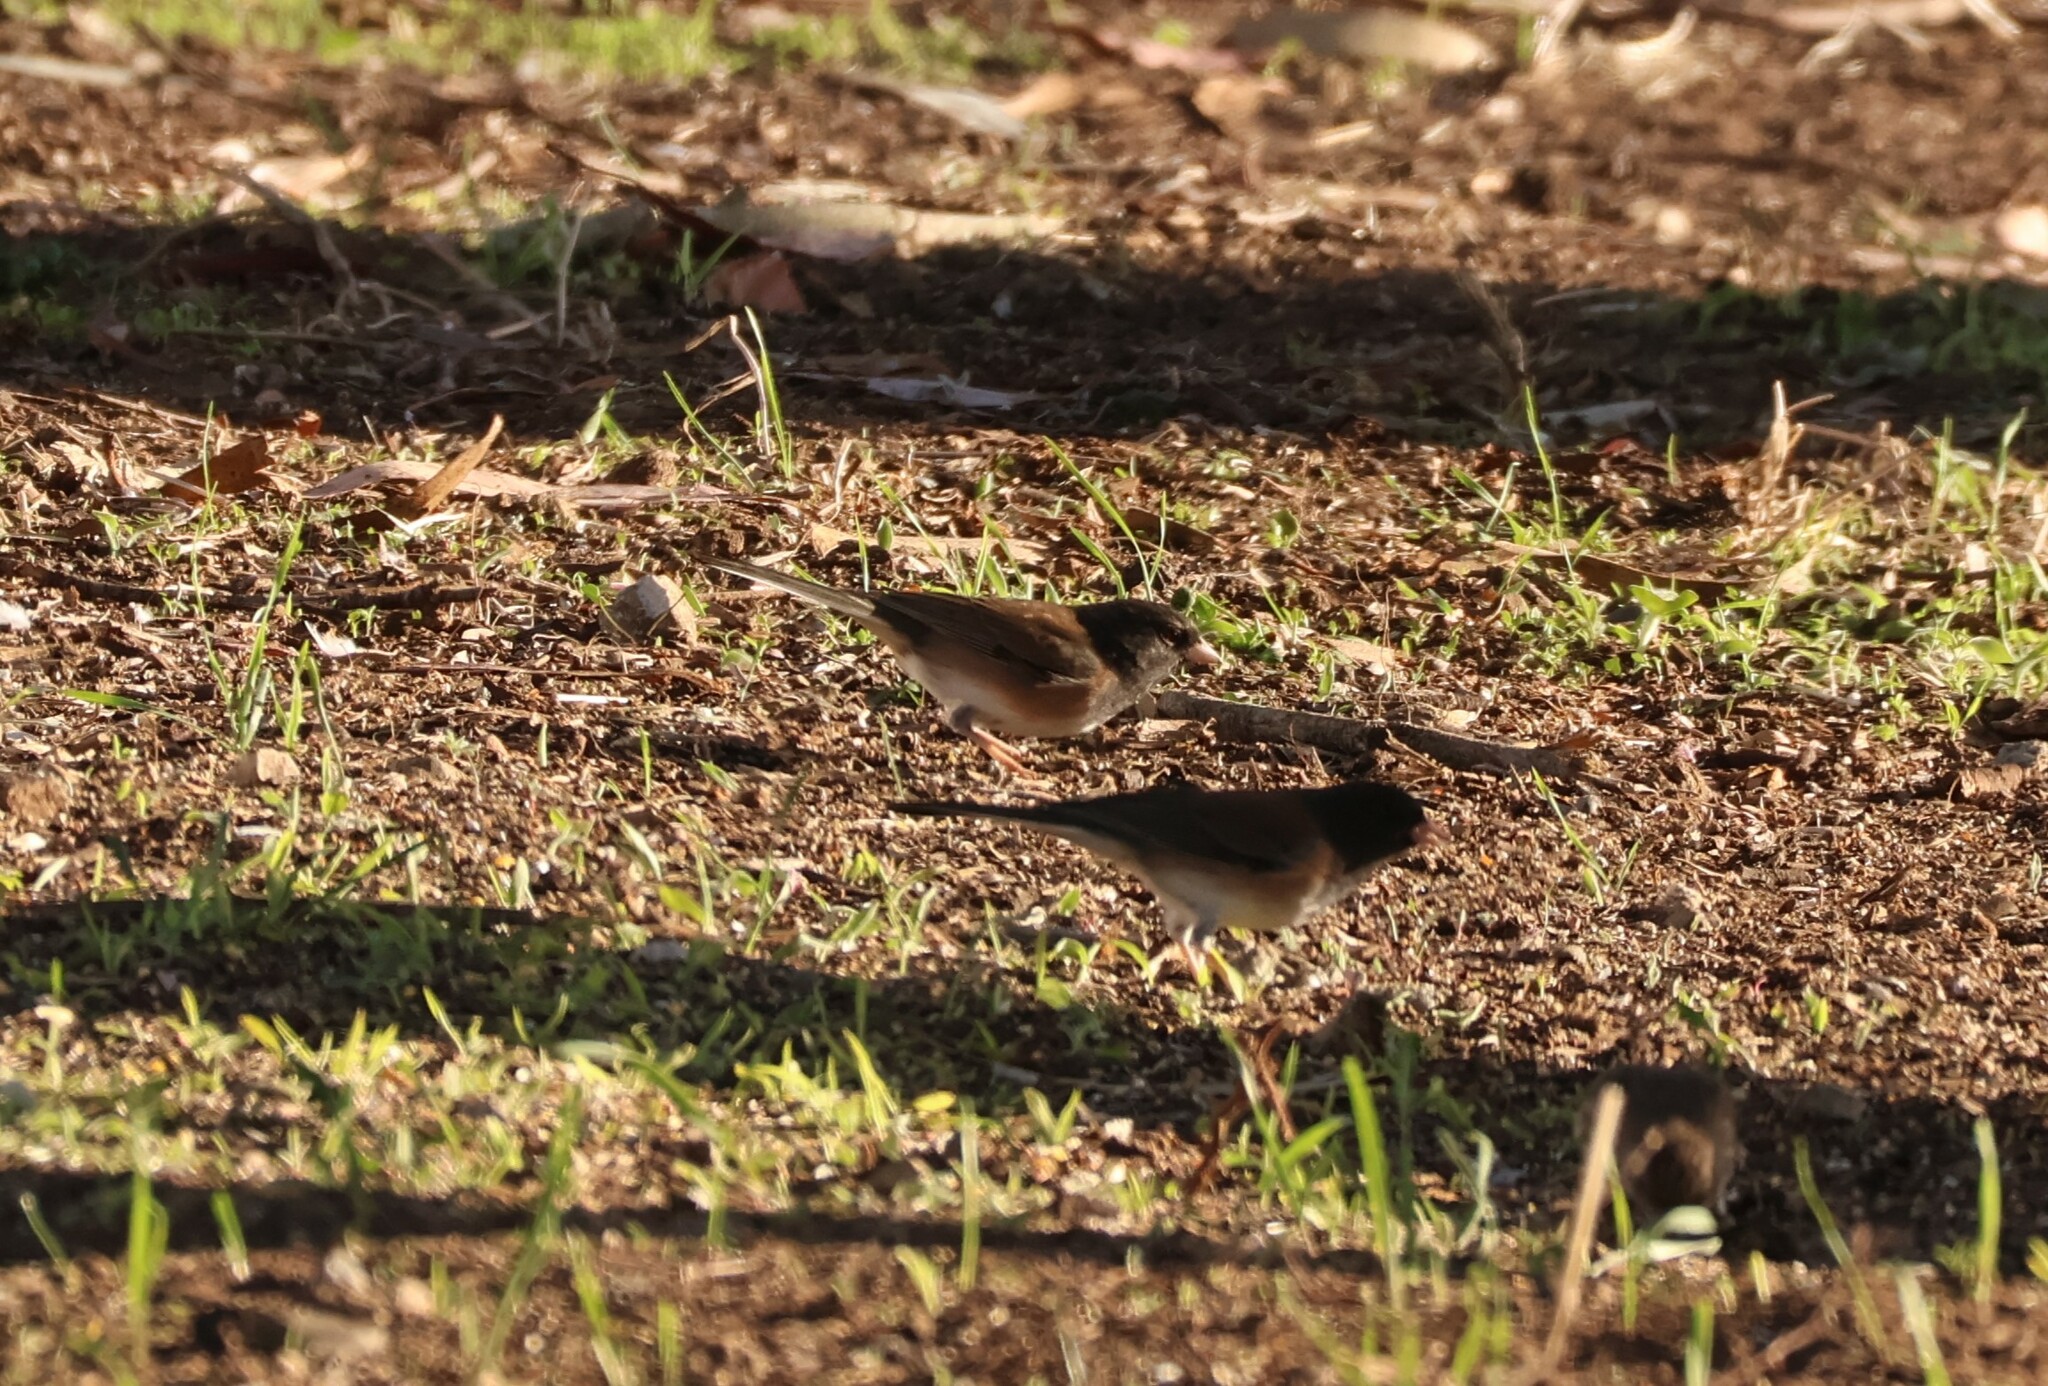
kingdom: Animalia
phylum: Chordata
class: Aves
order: Passeriformes
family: Passerellidae
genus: Junco
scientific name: Junco hyemalis
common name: Dark-eyed junco
